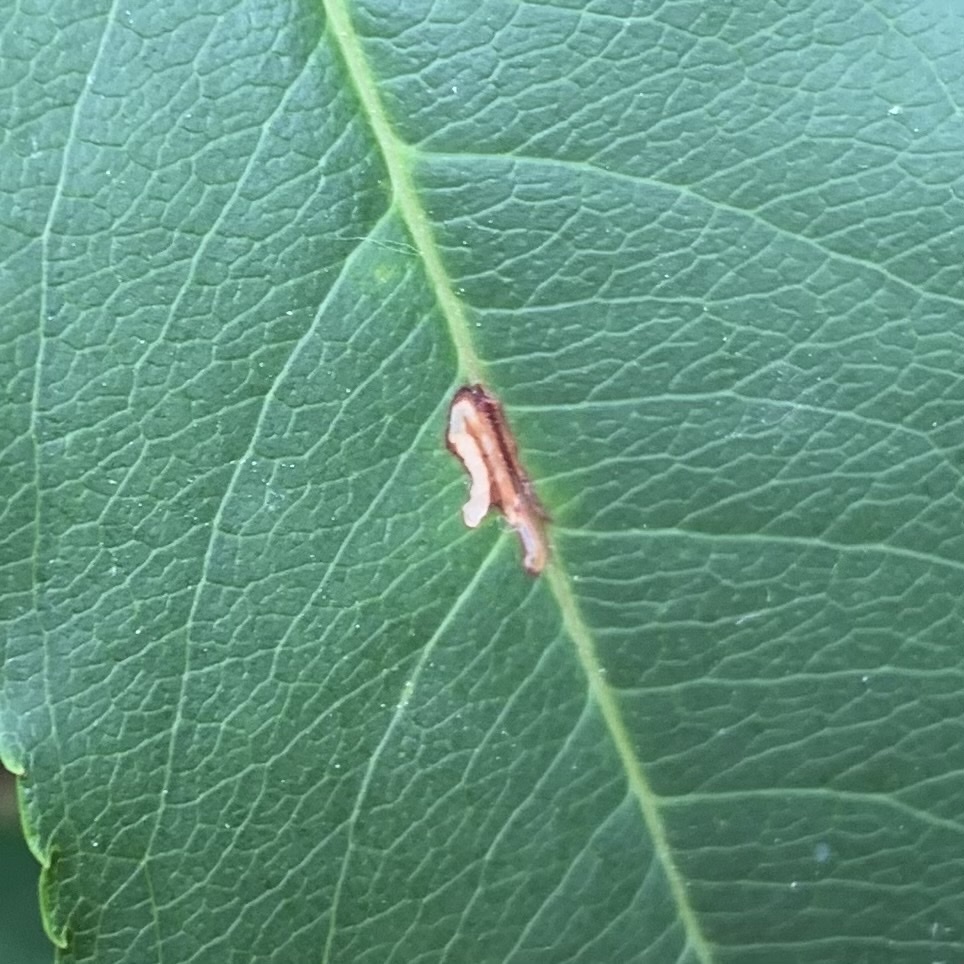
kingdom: Animalia
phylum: Arthropoda
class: Insecta
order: Lepidoptera
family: Bucculatricidae
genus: Bucculatrix
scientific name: Bucculatrix pomifoliella
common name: Apple skeletonizer moth
